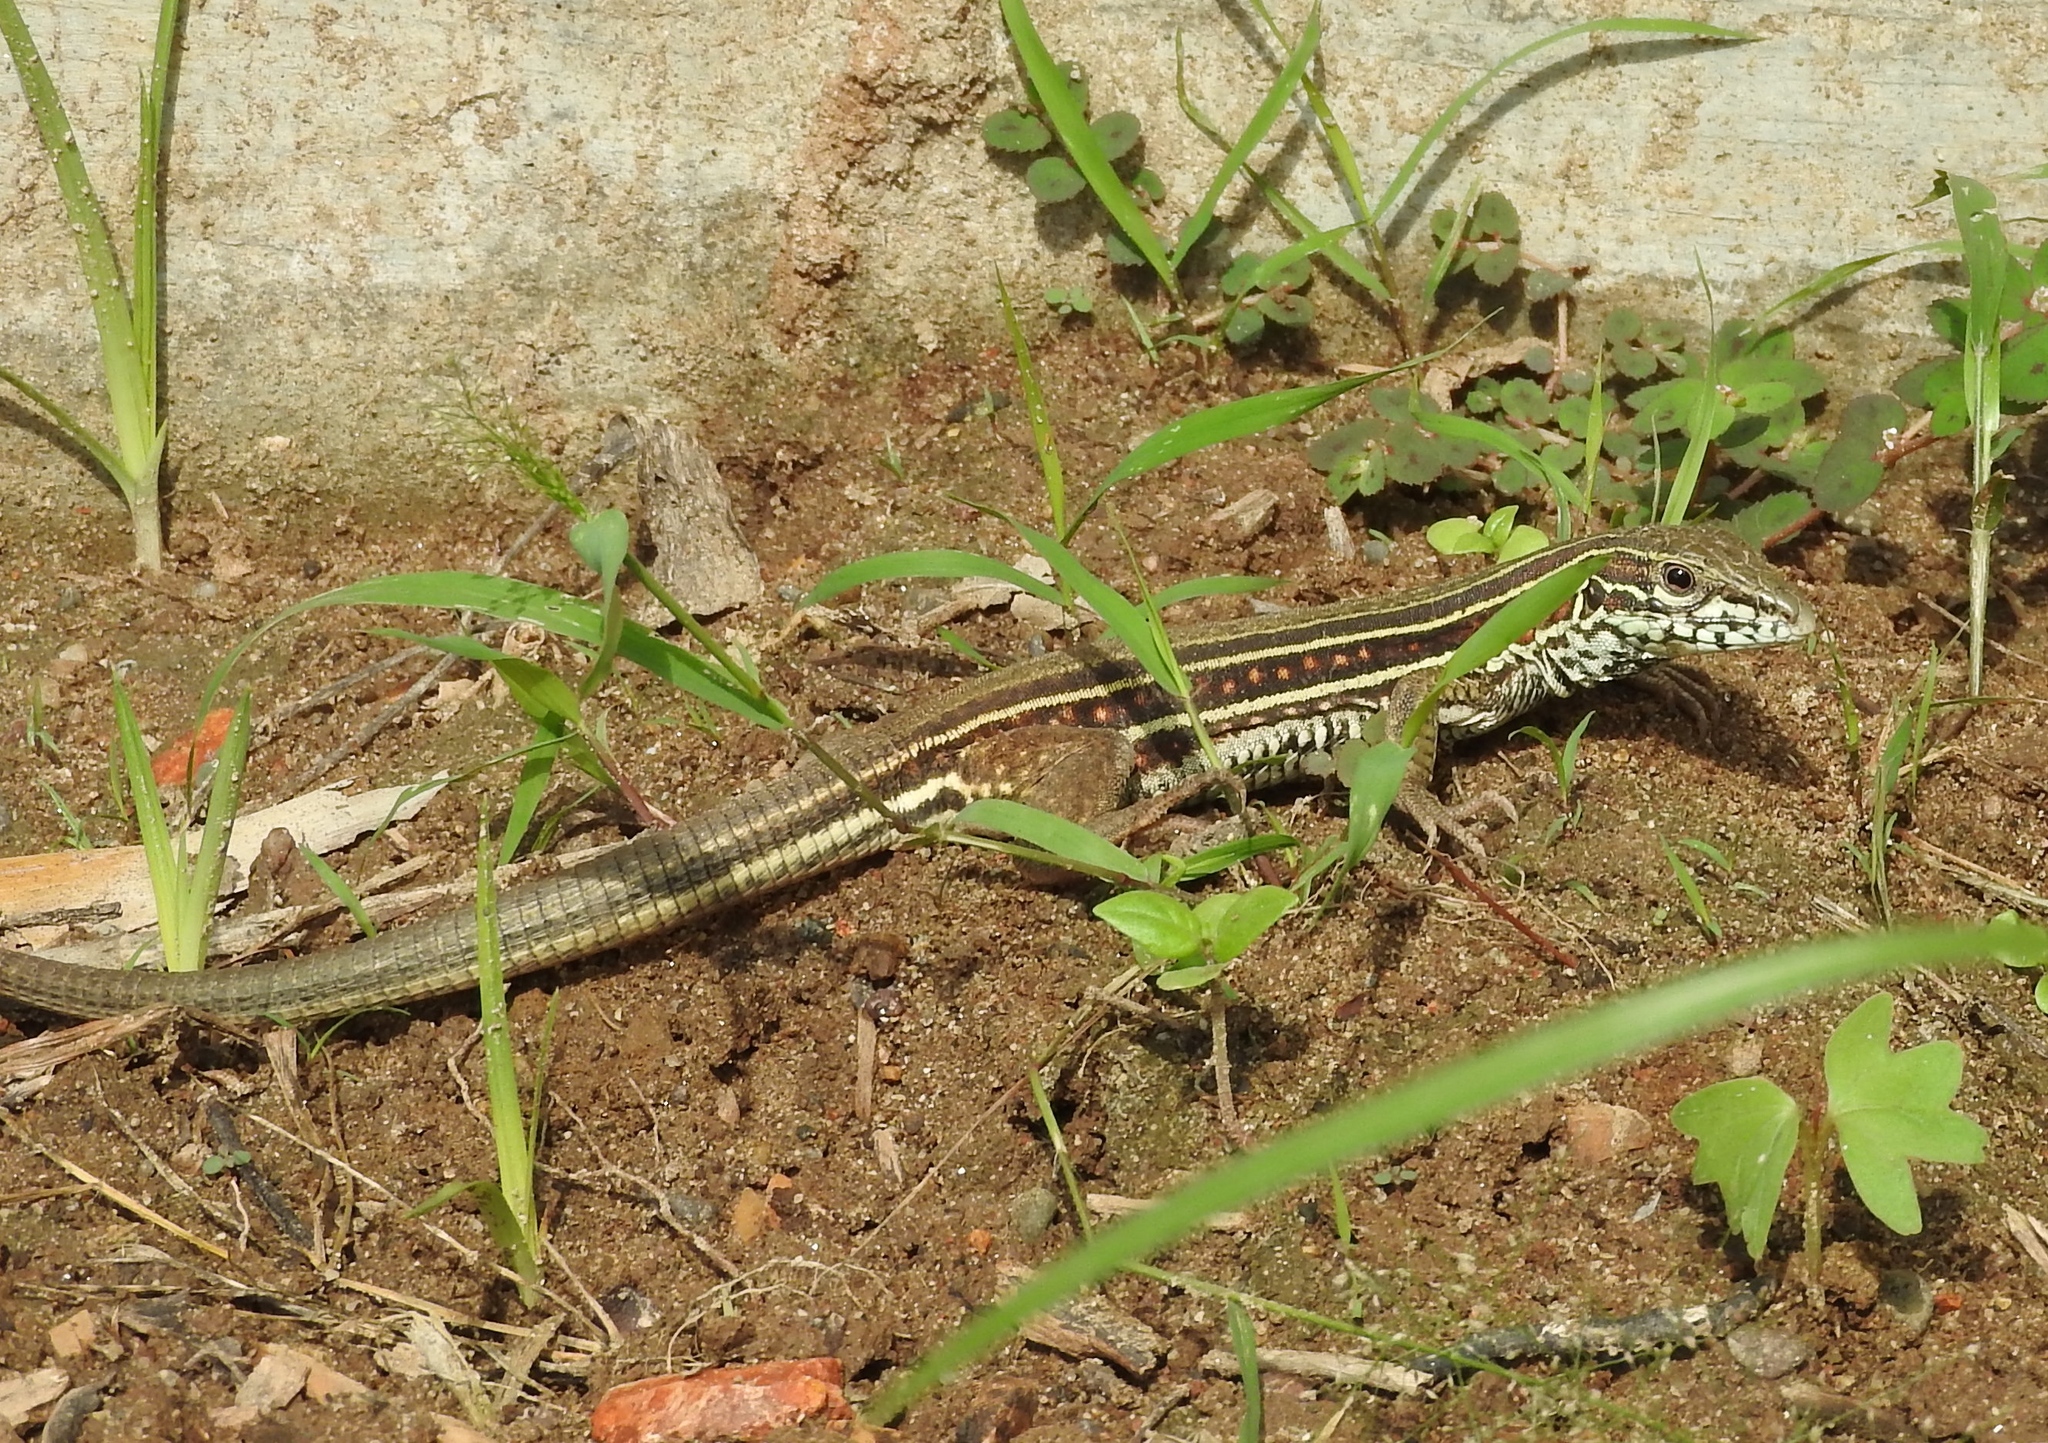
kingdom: Animalia
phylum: Chordata
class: Squamata
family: Teiidae
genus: Aspidoscelis
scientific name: Aspidoscelis costatus
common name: Western mexico whiptail
